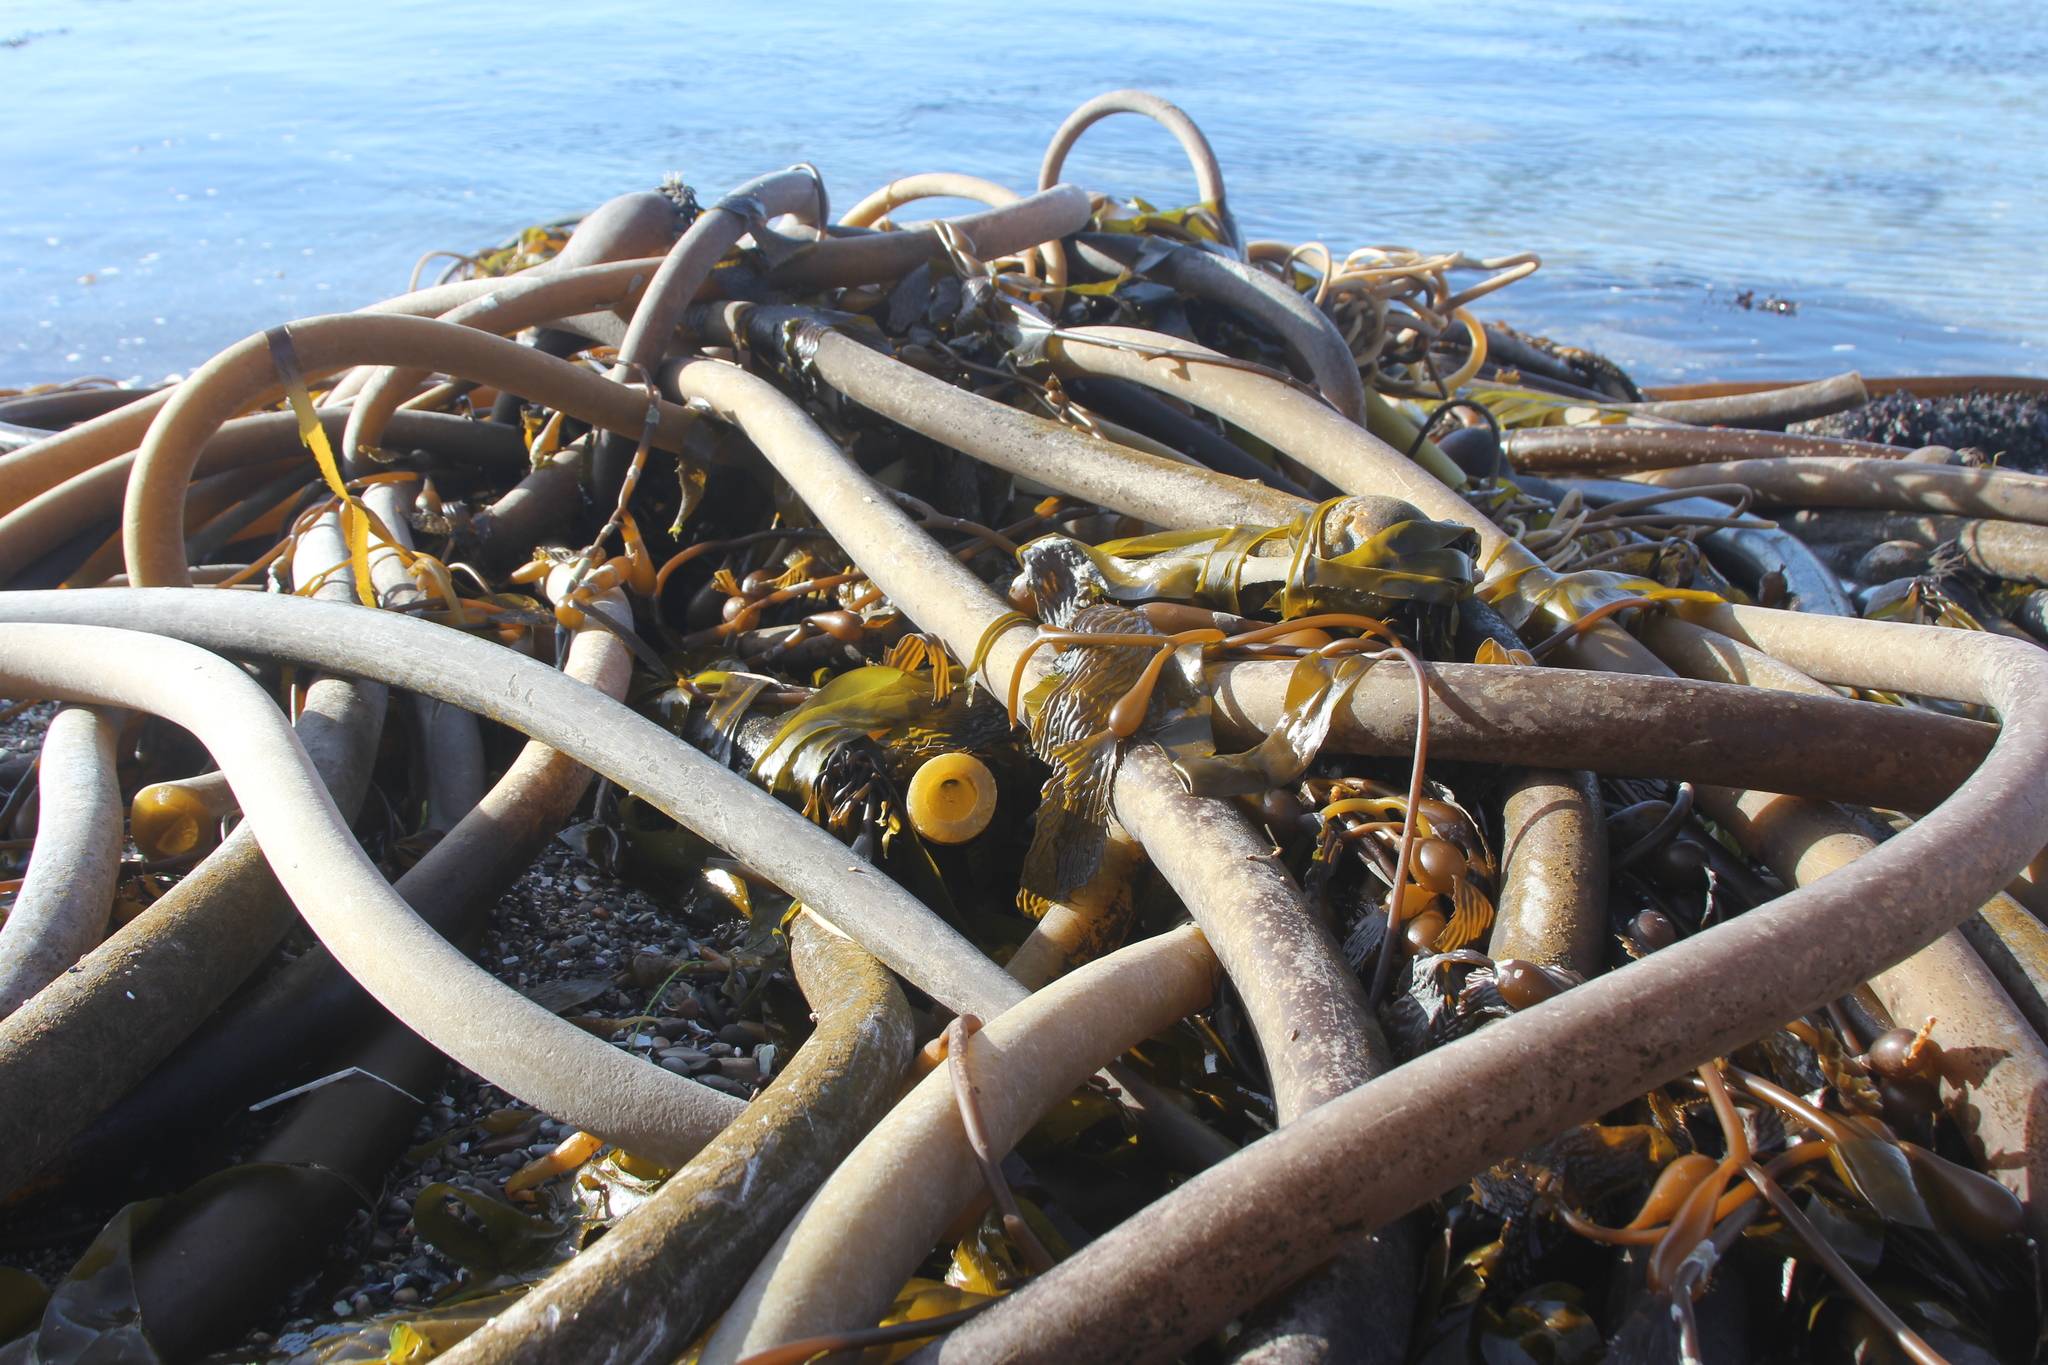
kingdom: Chromista
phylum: Ochrophyta
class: Phaeophyceae
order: Laminariales
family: Laminariaceae
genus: Nereocystis
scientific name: Nereocystis luetkeana
